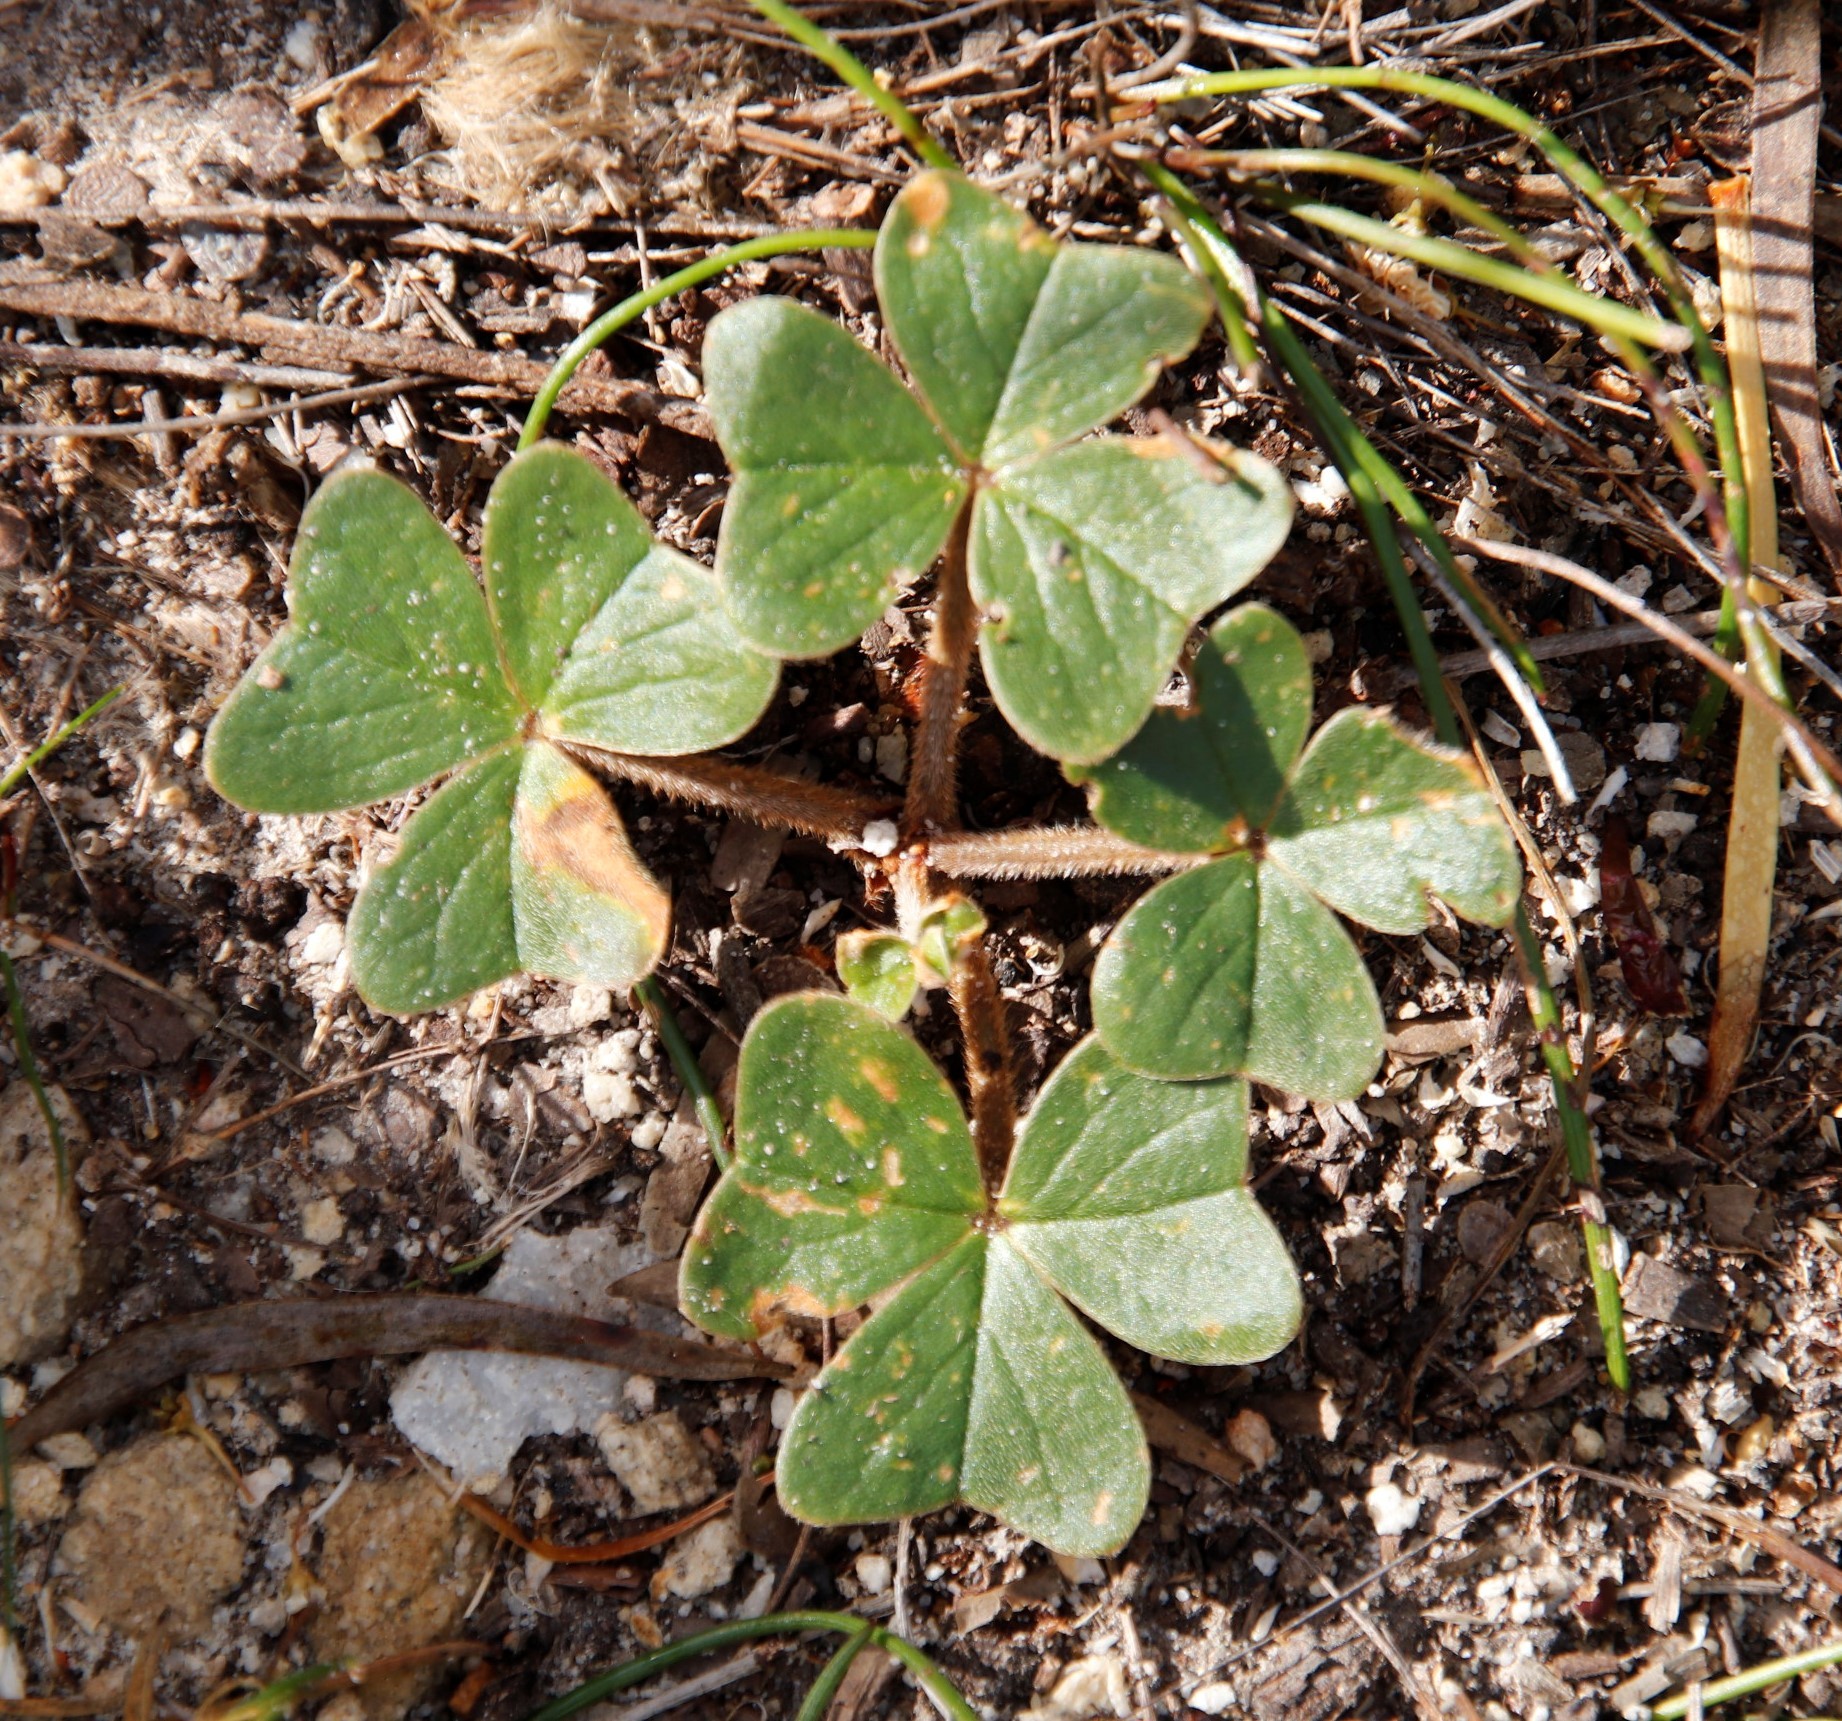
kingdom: Plantae
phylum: Tracheophyta
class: Magnoliopsida
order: Oxalidales
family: Oxalidaceae
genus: Oxalis
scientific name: Oxalis truncatula
